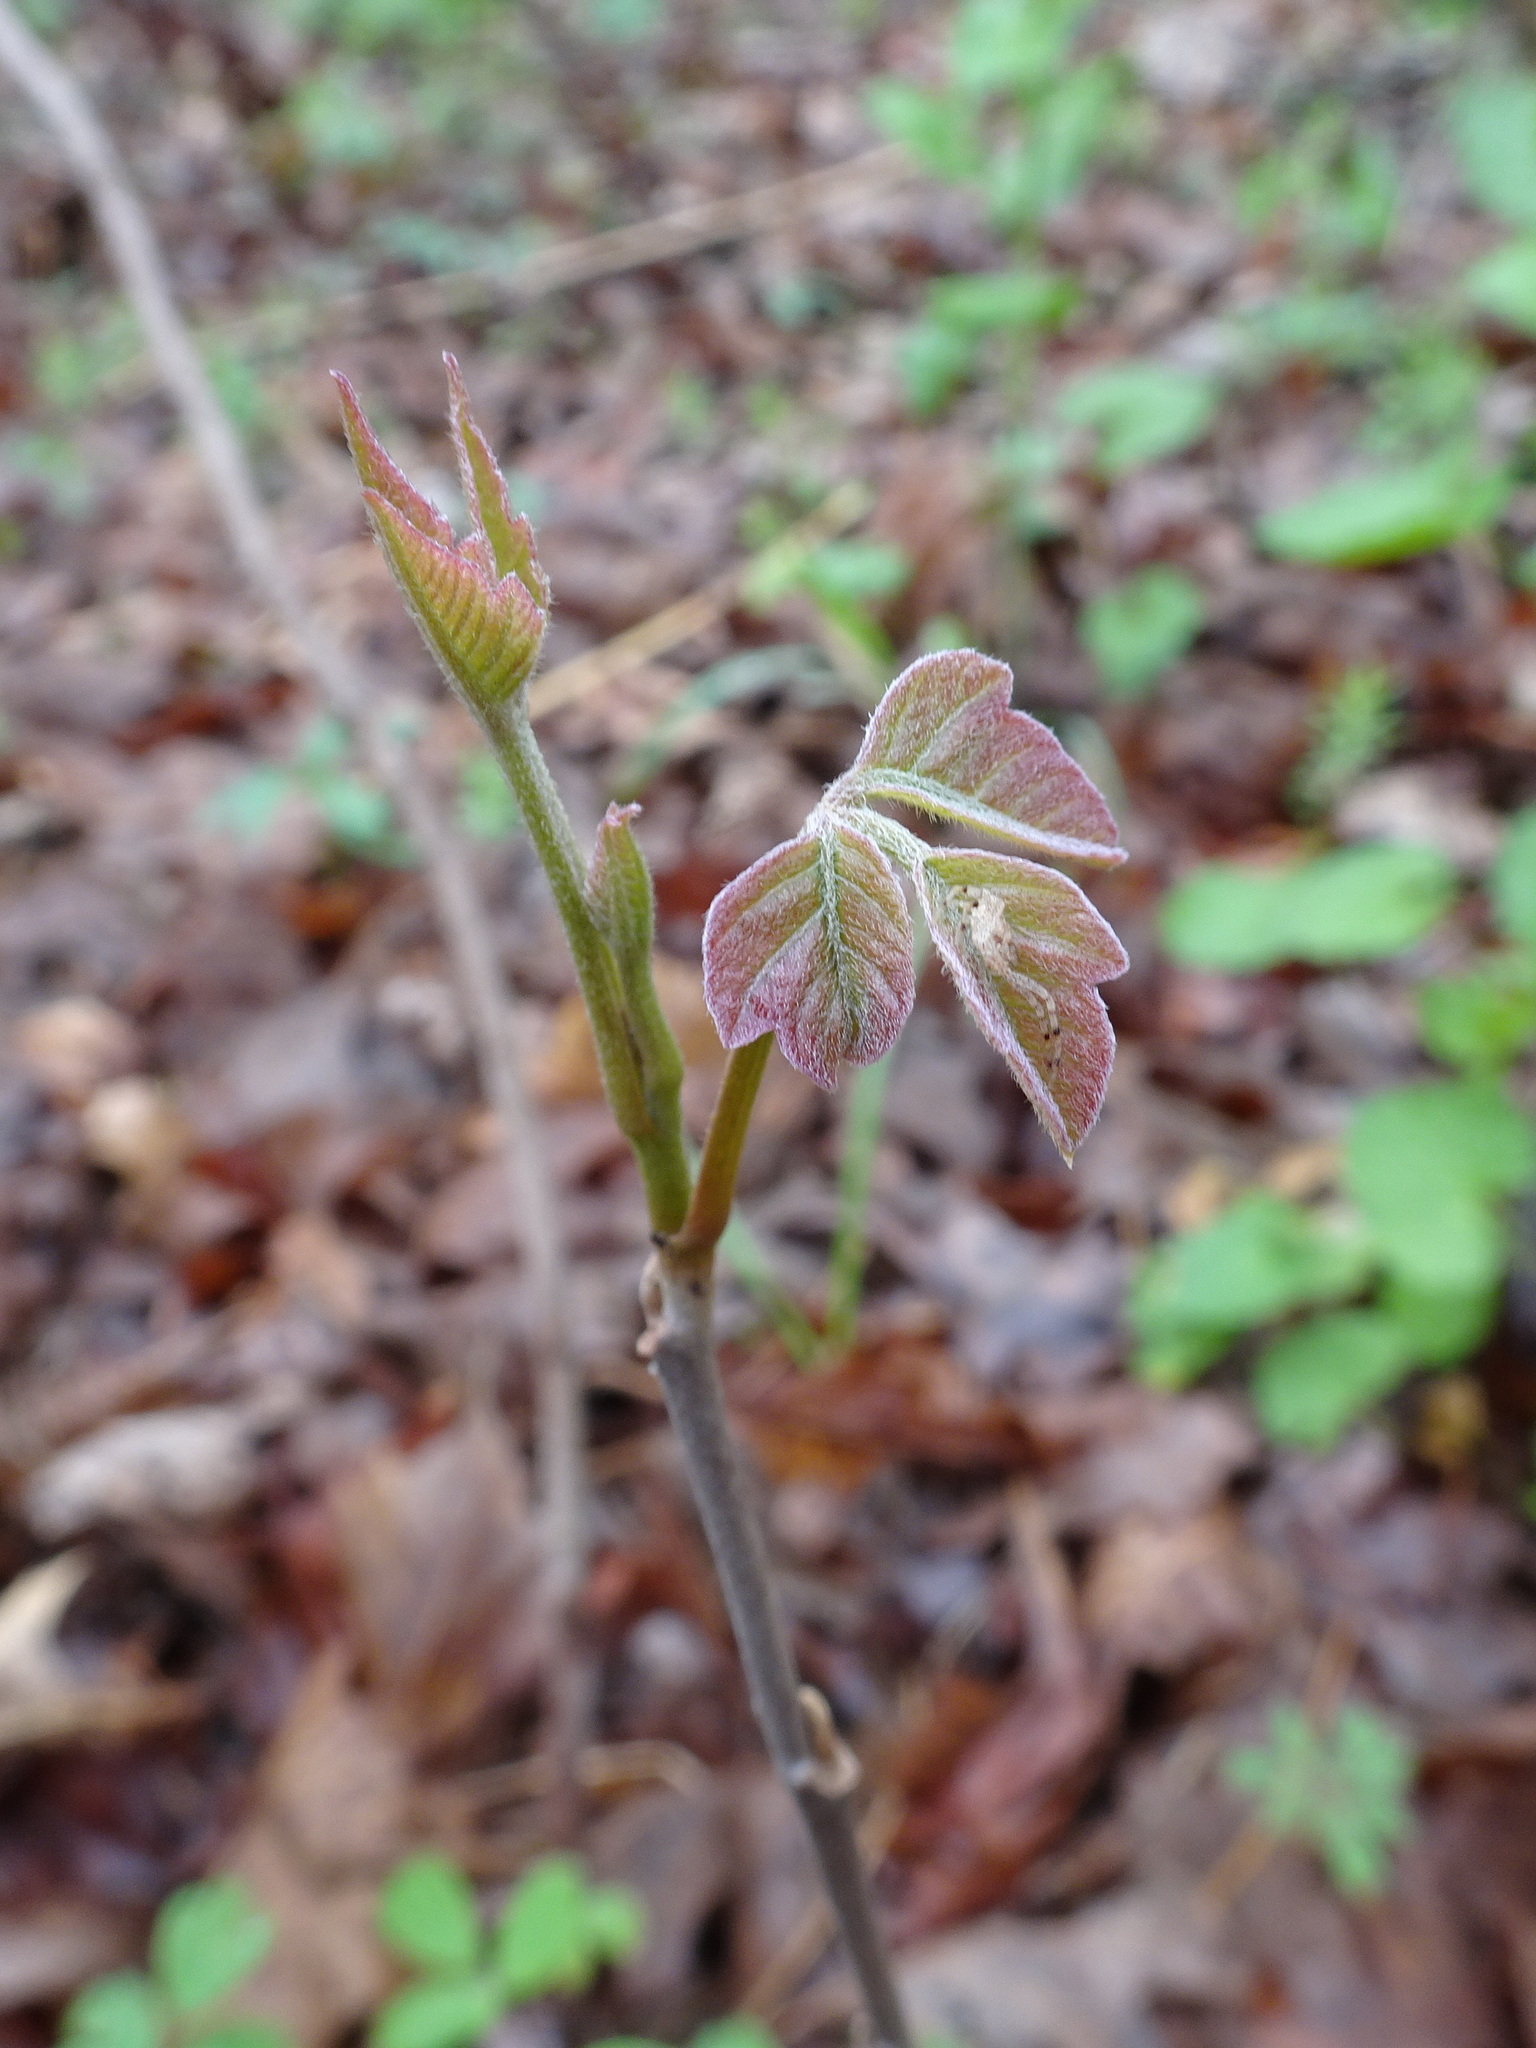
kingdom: Plantae
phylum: Tracheophyta
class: Magnoliopsida
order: Sapindales
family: Anacardiaceae
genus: Toxicodendron
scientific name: Toxicodendron radicans
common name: Poison ivy
